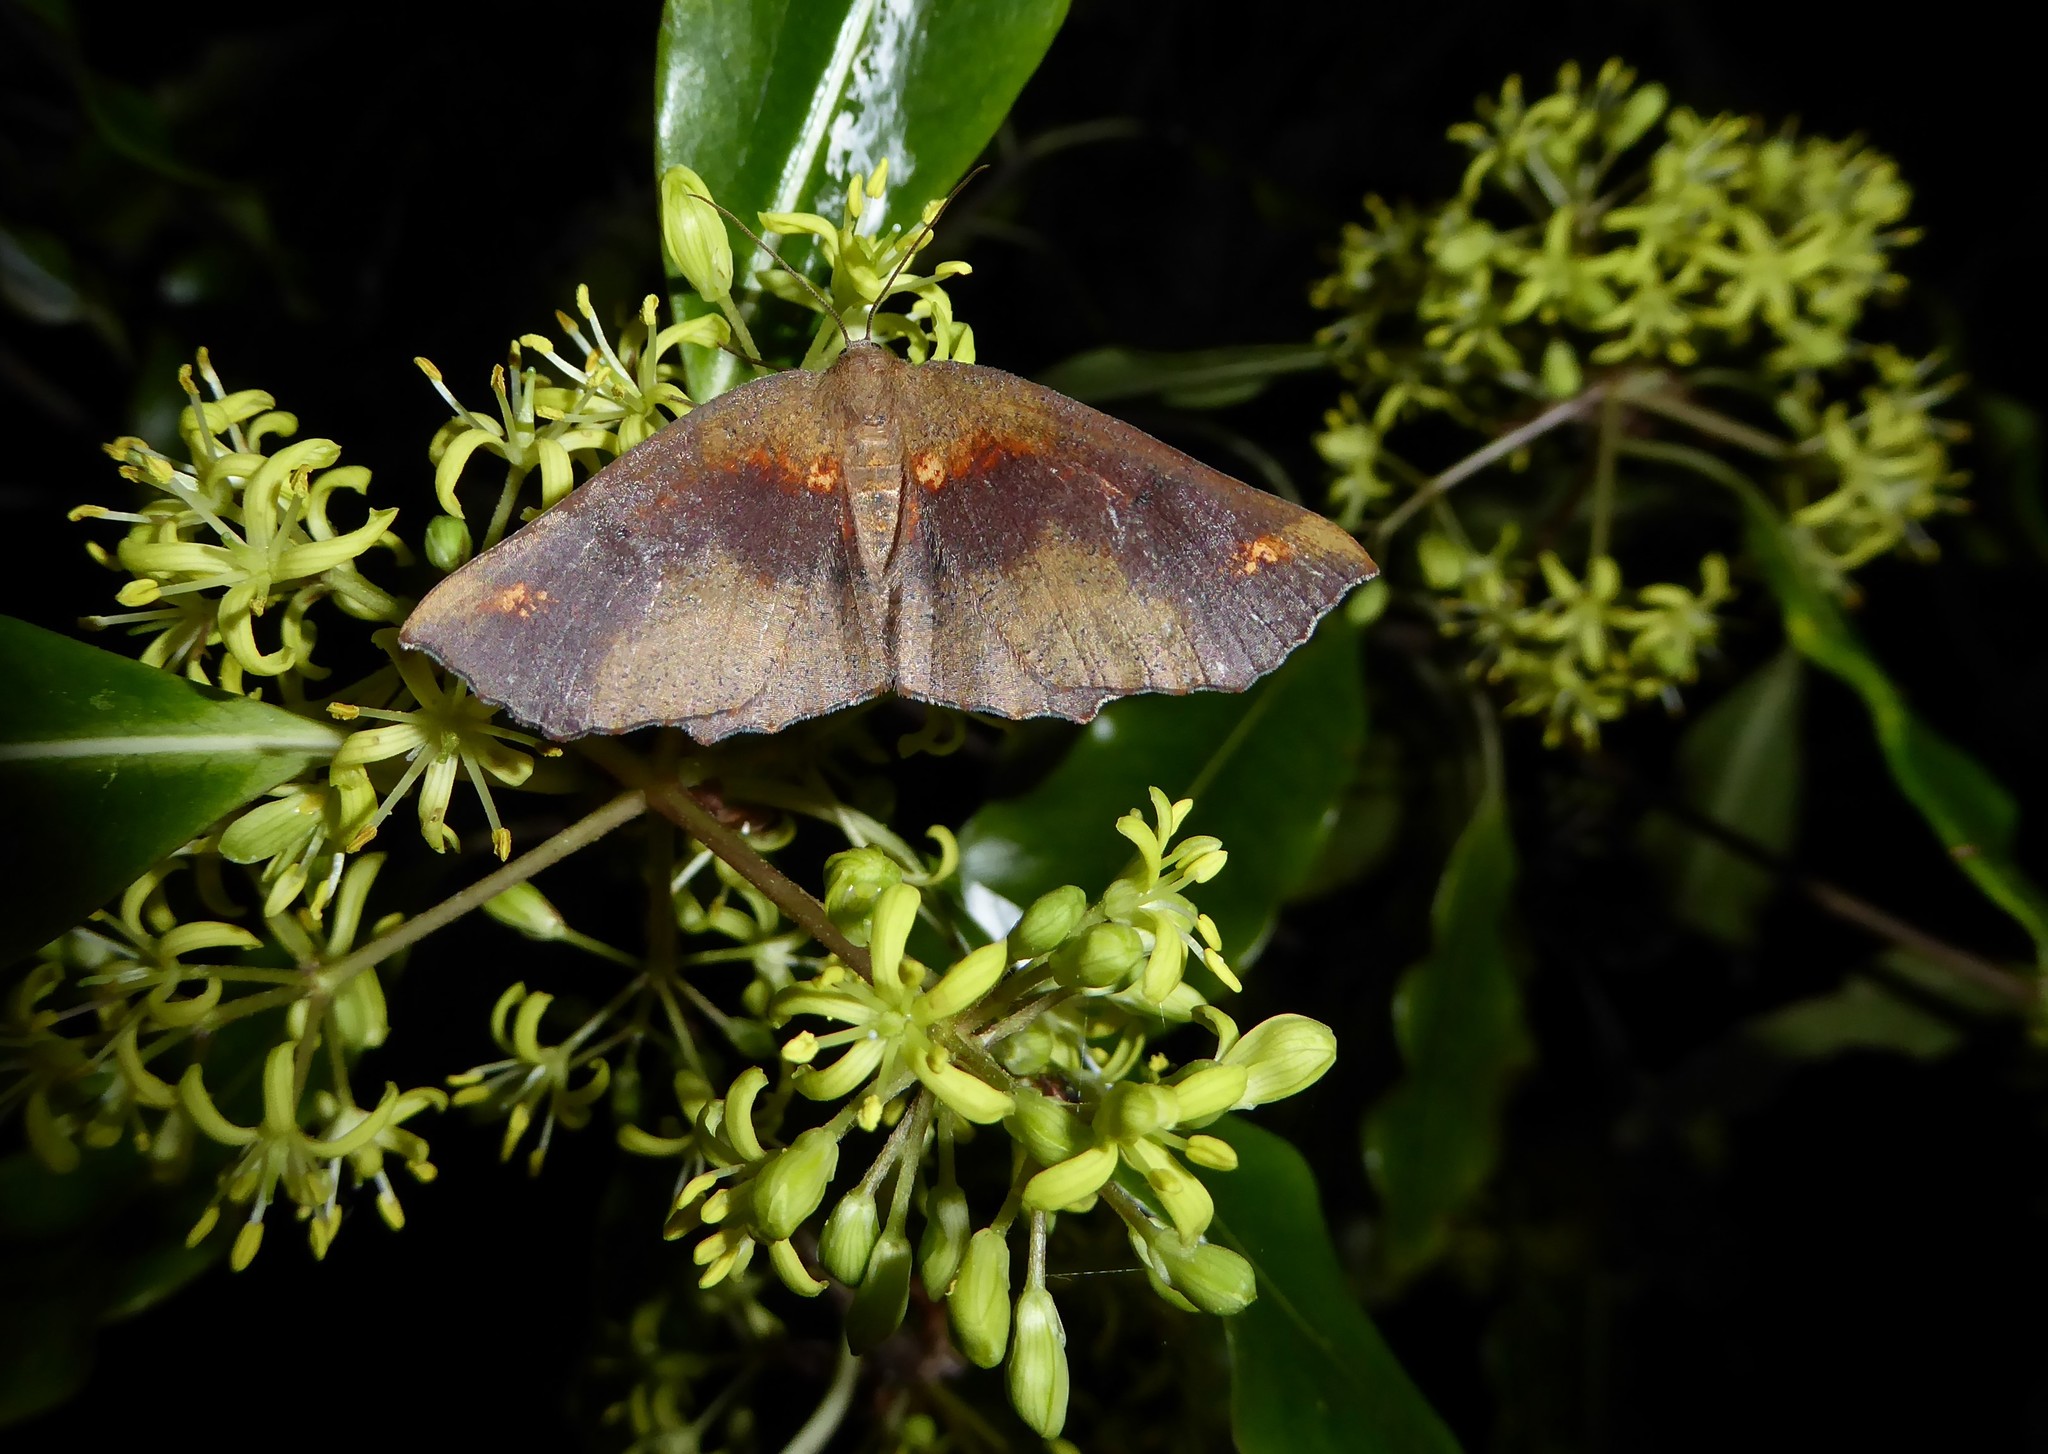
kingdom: Animalia
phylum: Arthropoda
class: Insecta
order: Lepidoptera
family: Geometridae
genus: Xyridacma
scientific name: Xyridacma ustaria
